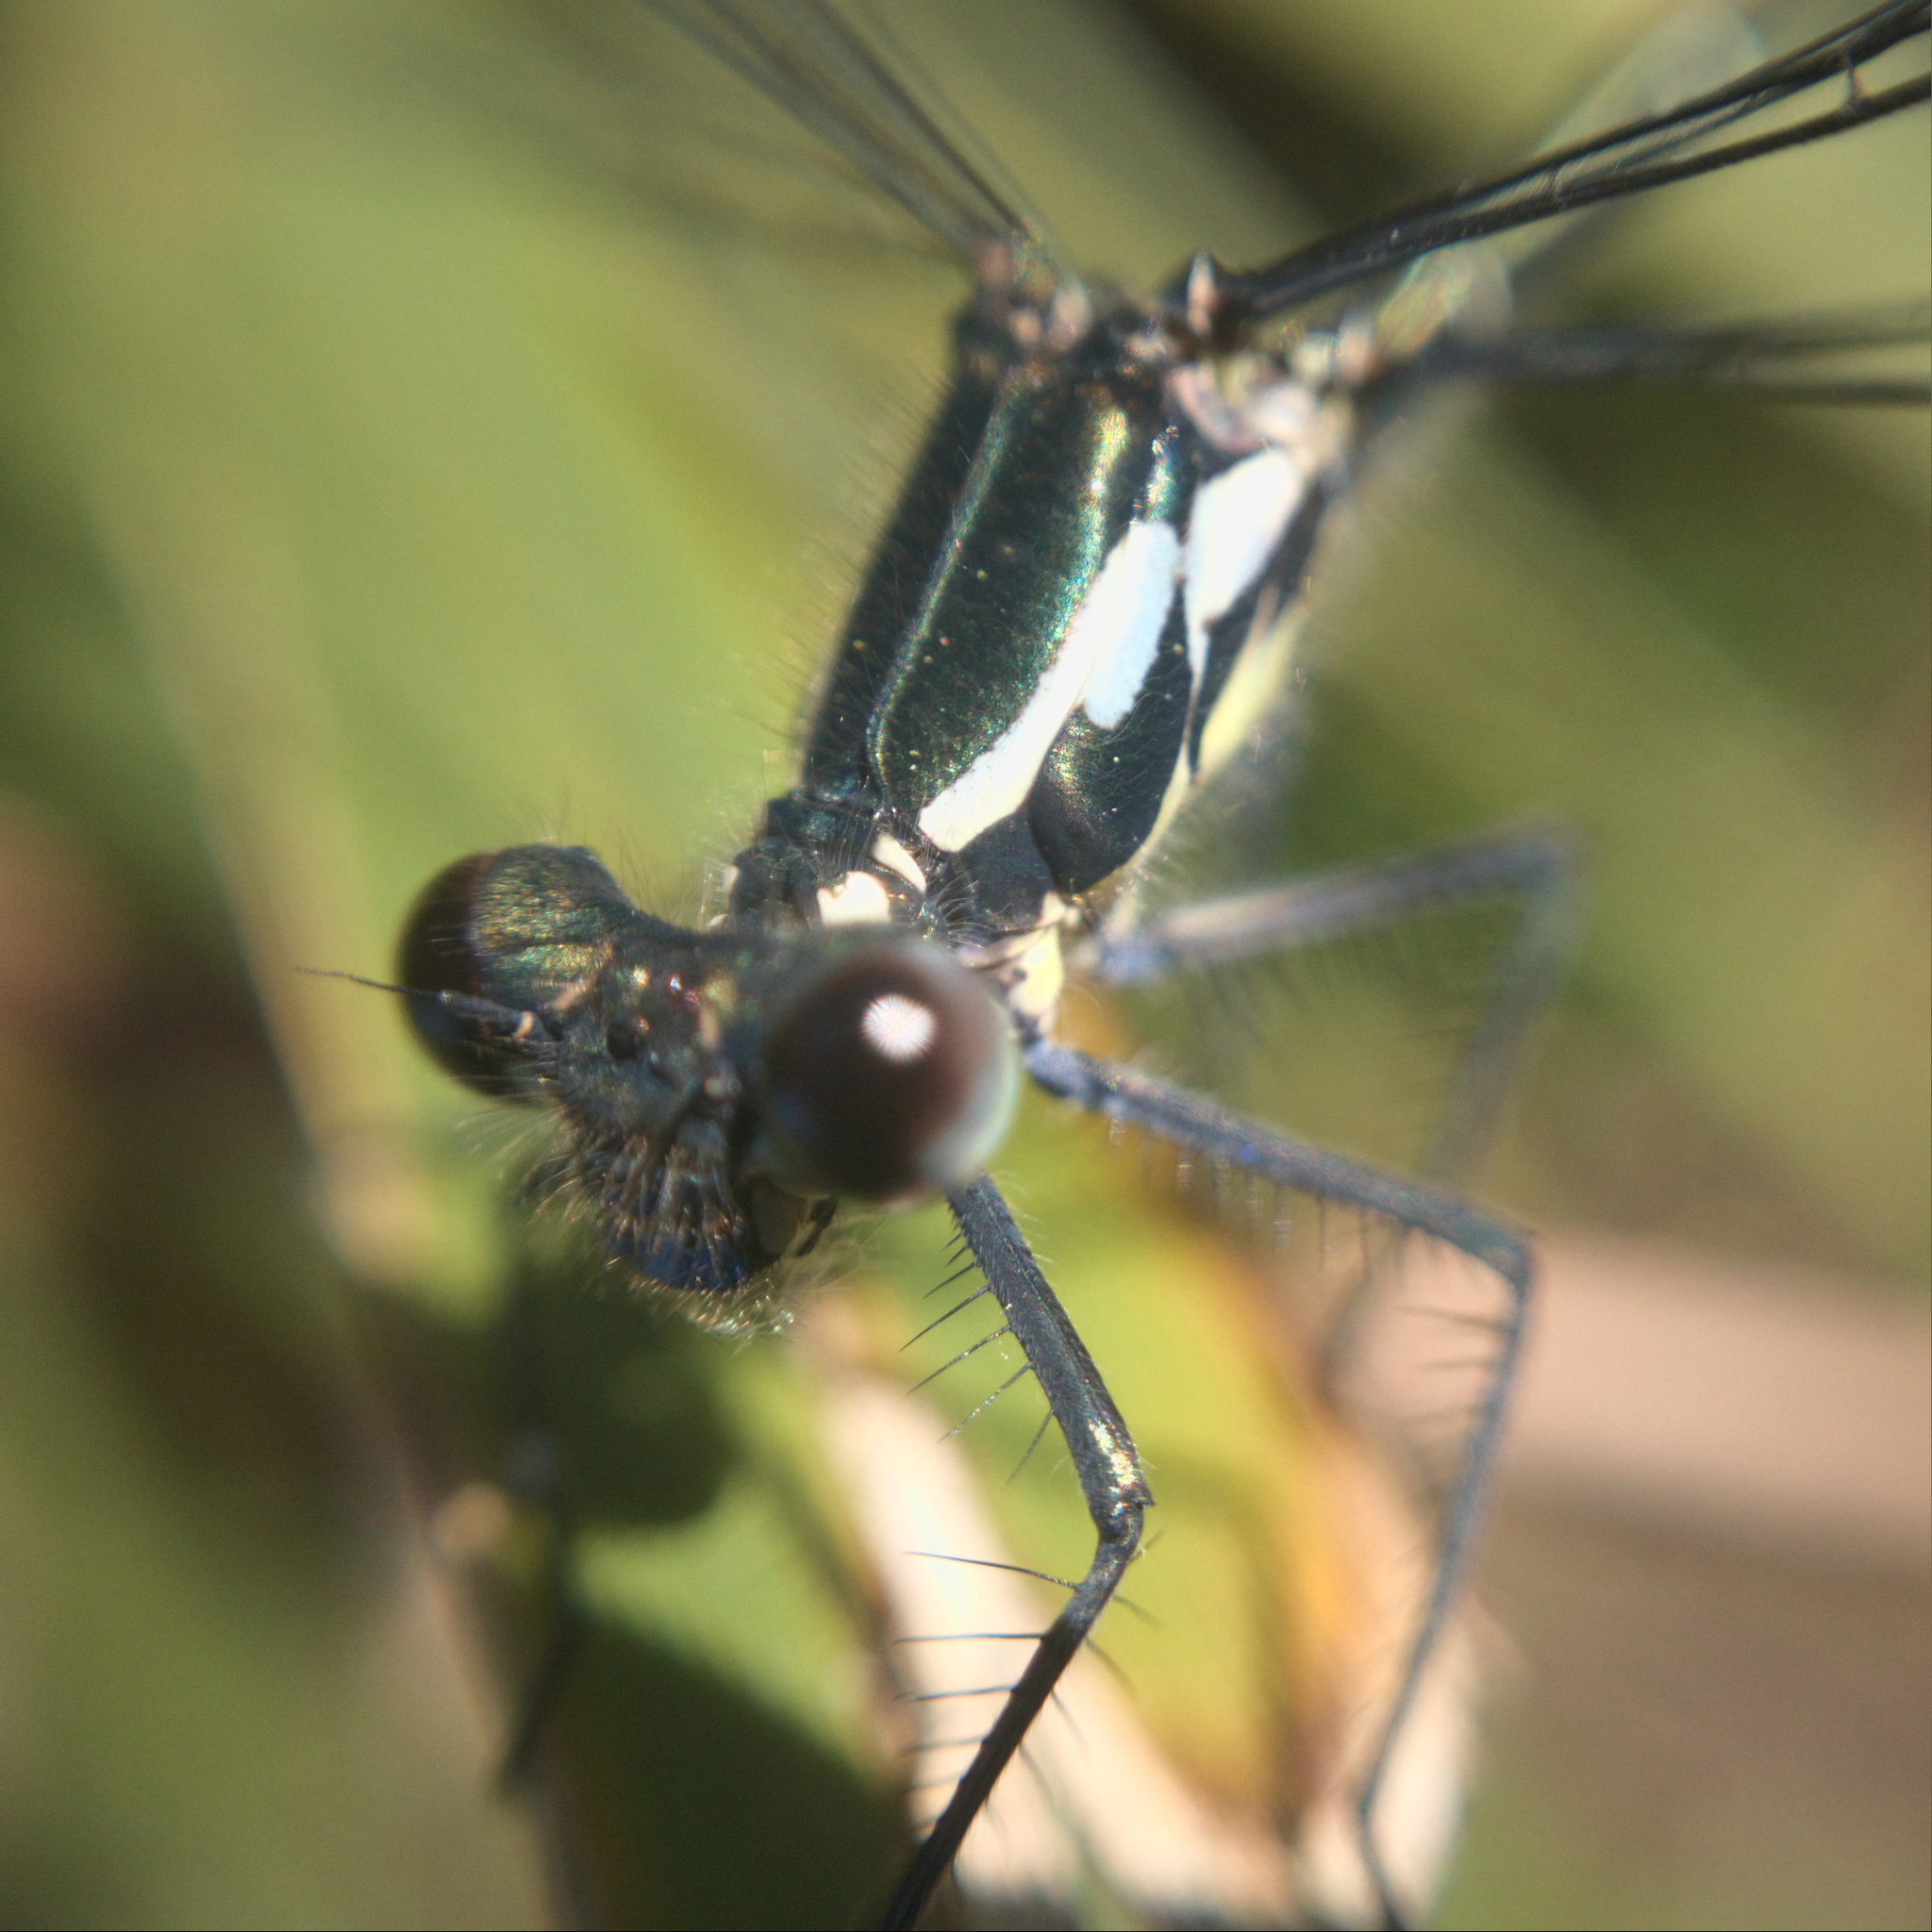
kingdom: Animalia
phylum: Arthropoda
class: Insecta
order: Odonata
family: Argiolestidae
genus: Austroargiolestes
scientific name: Austroargiolestes icteromelas
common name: Common flatwing
